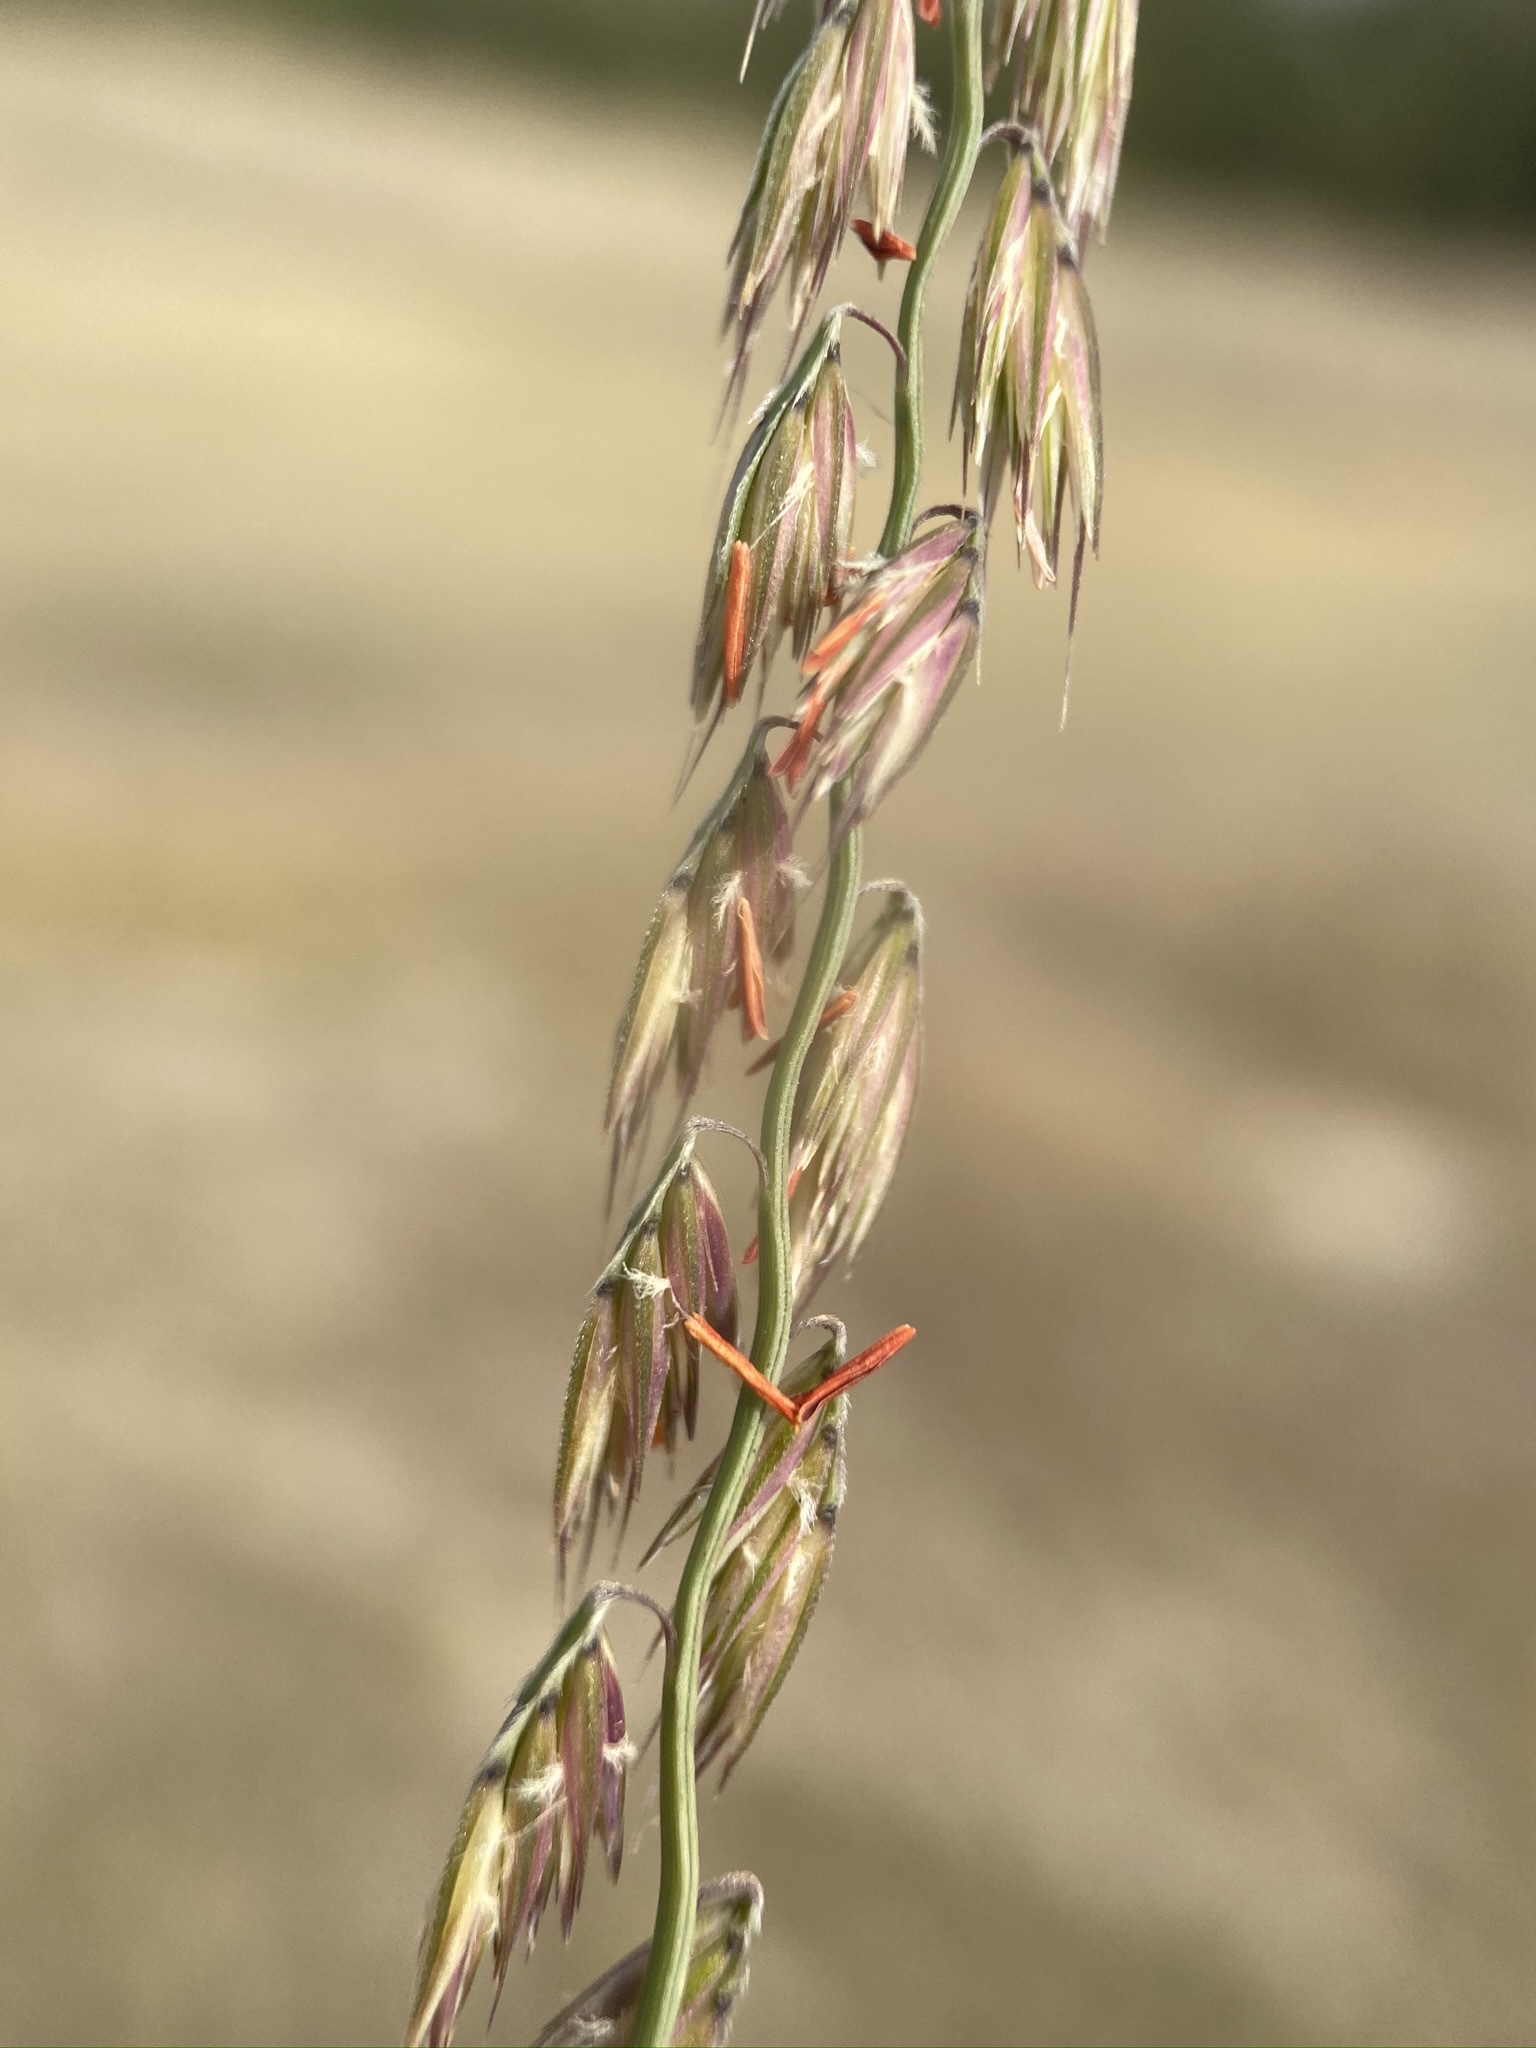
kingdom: Plantae
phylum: Tracheophyta
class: Liliopsida
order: Poales
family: Poaceae
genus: Bouteloua
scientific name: Bouteloua curtipendula
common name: Side-oats grama
